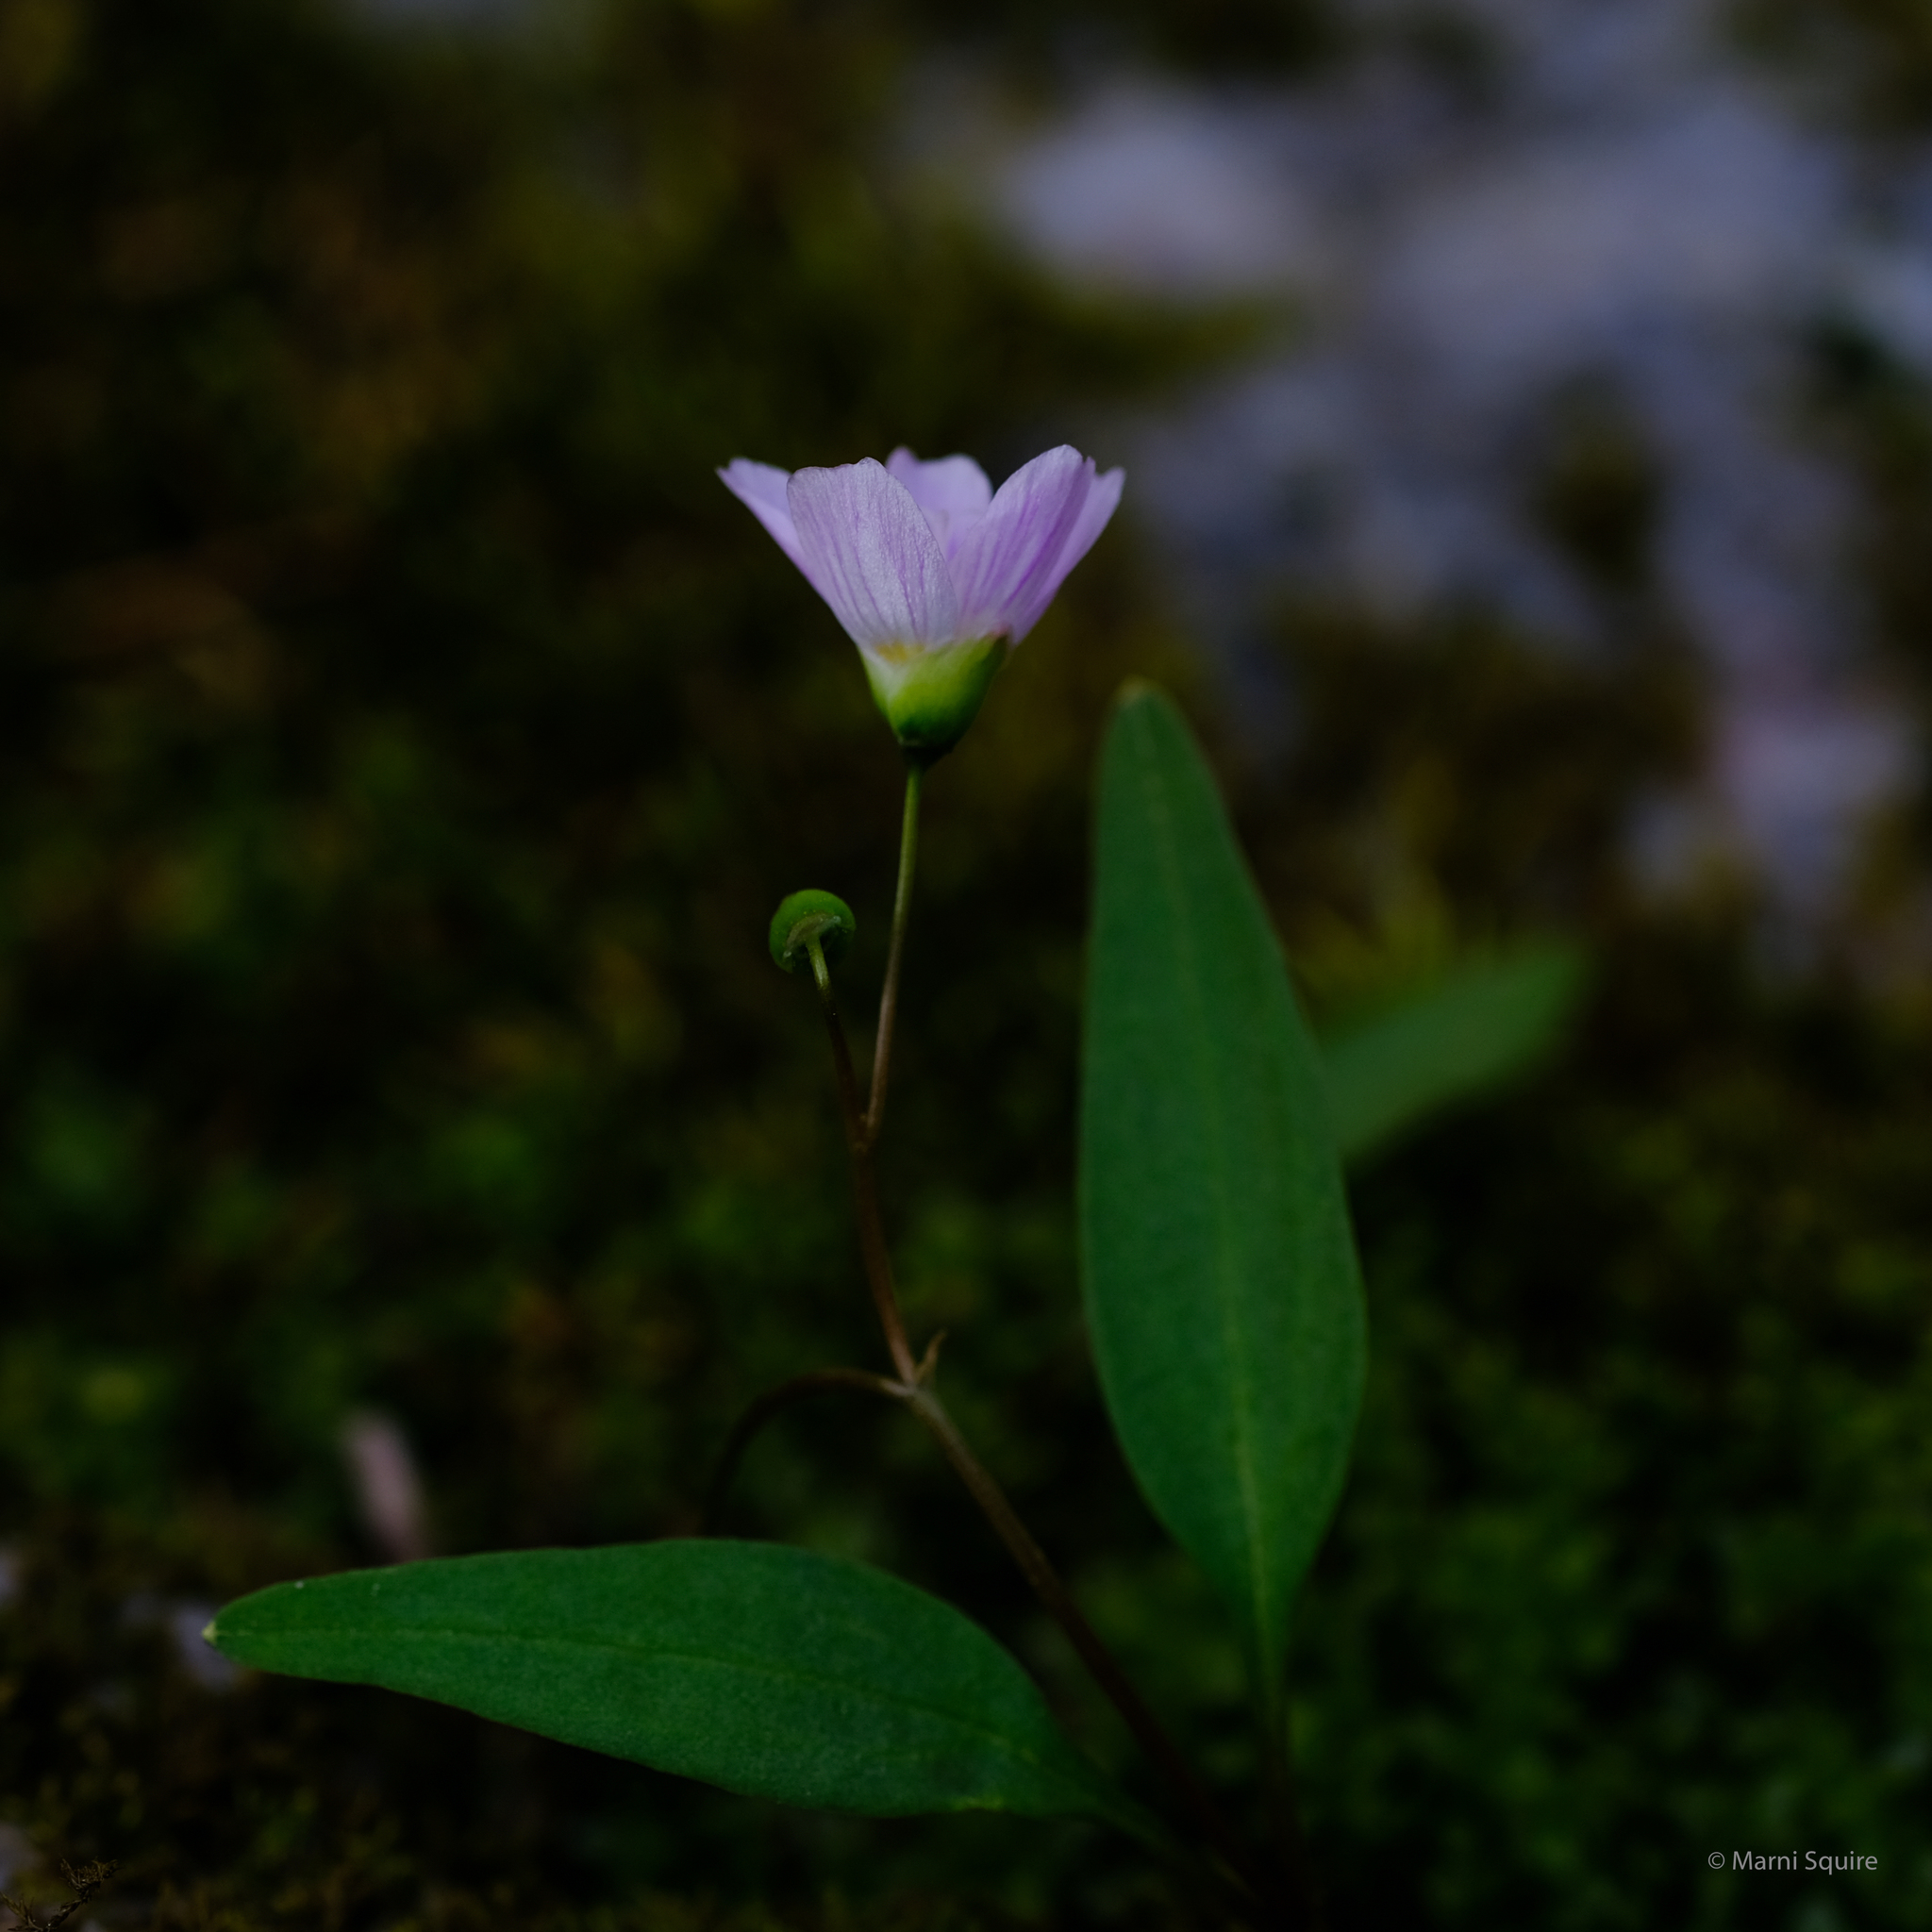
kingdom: Plantae
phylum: Tracheophyta
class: Magnoliopsida
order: Caryophyllales
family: Montiaceae
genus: Claytonia
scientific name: Claytonia caroliniana
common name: Carolina spring beauty
